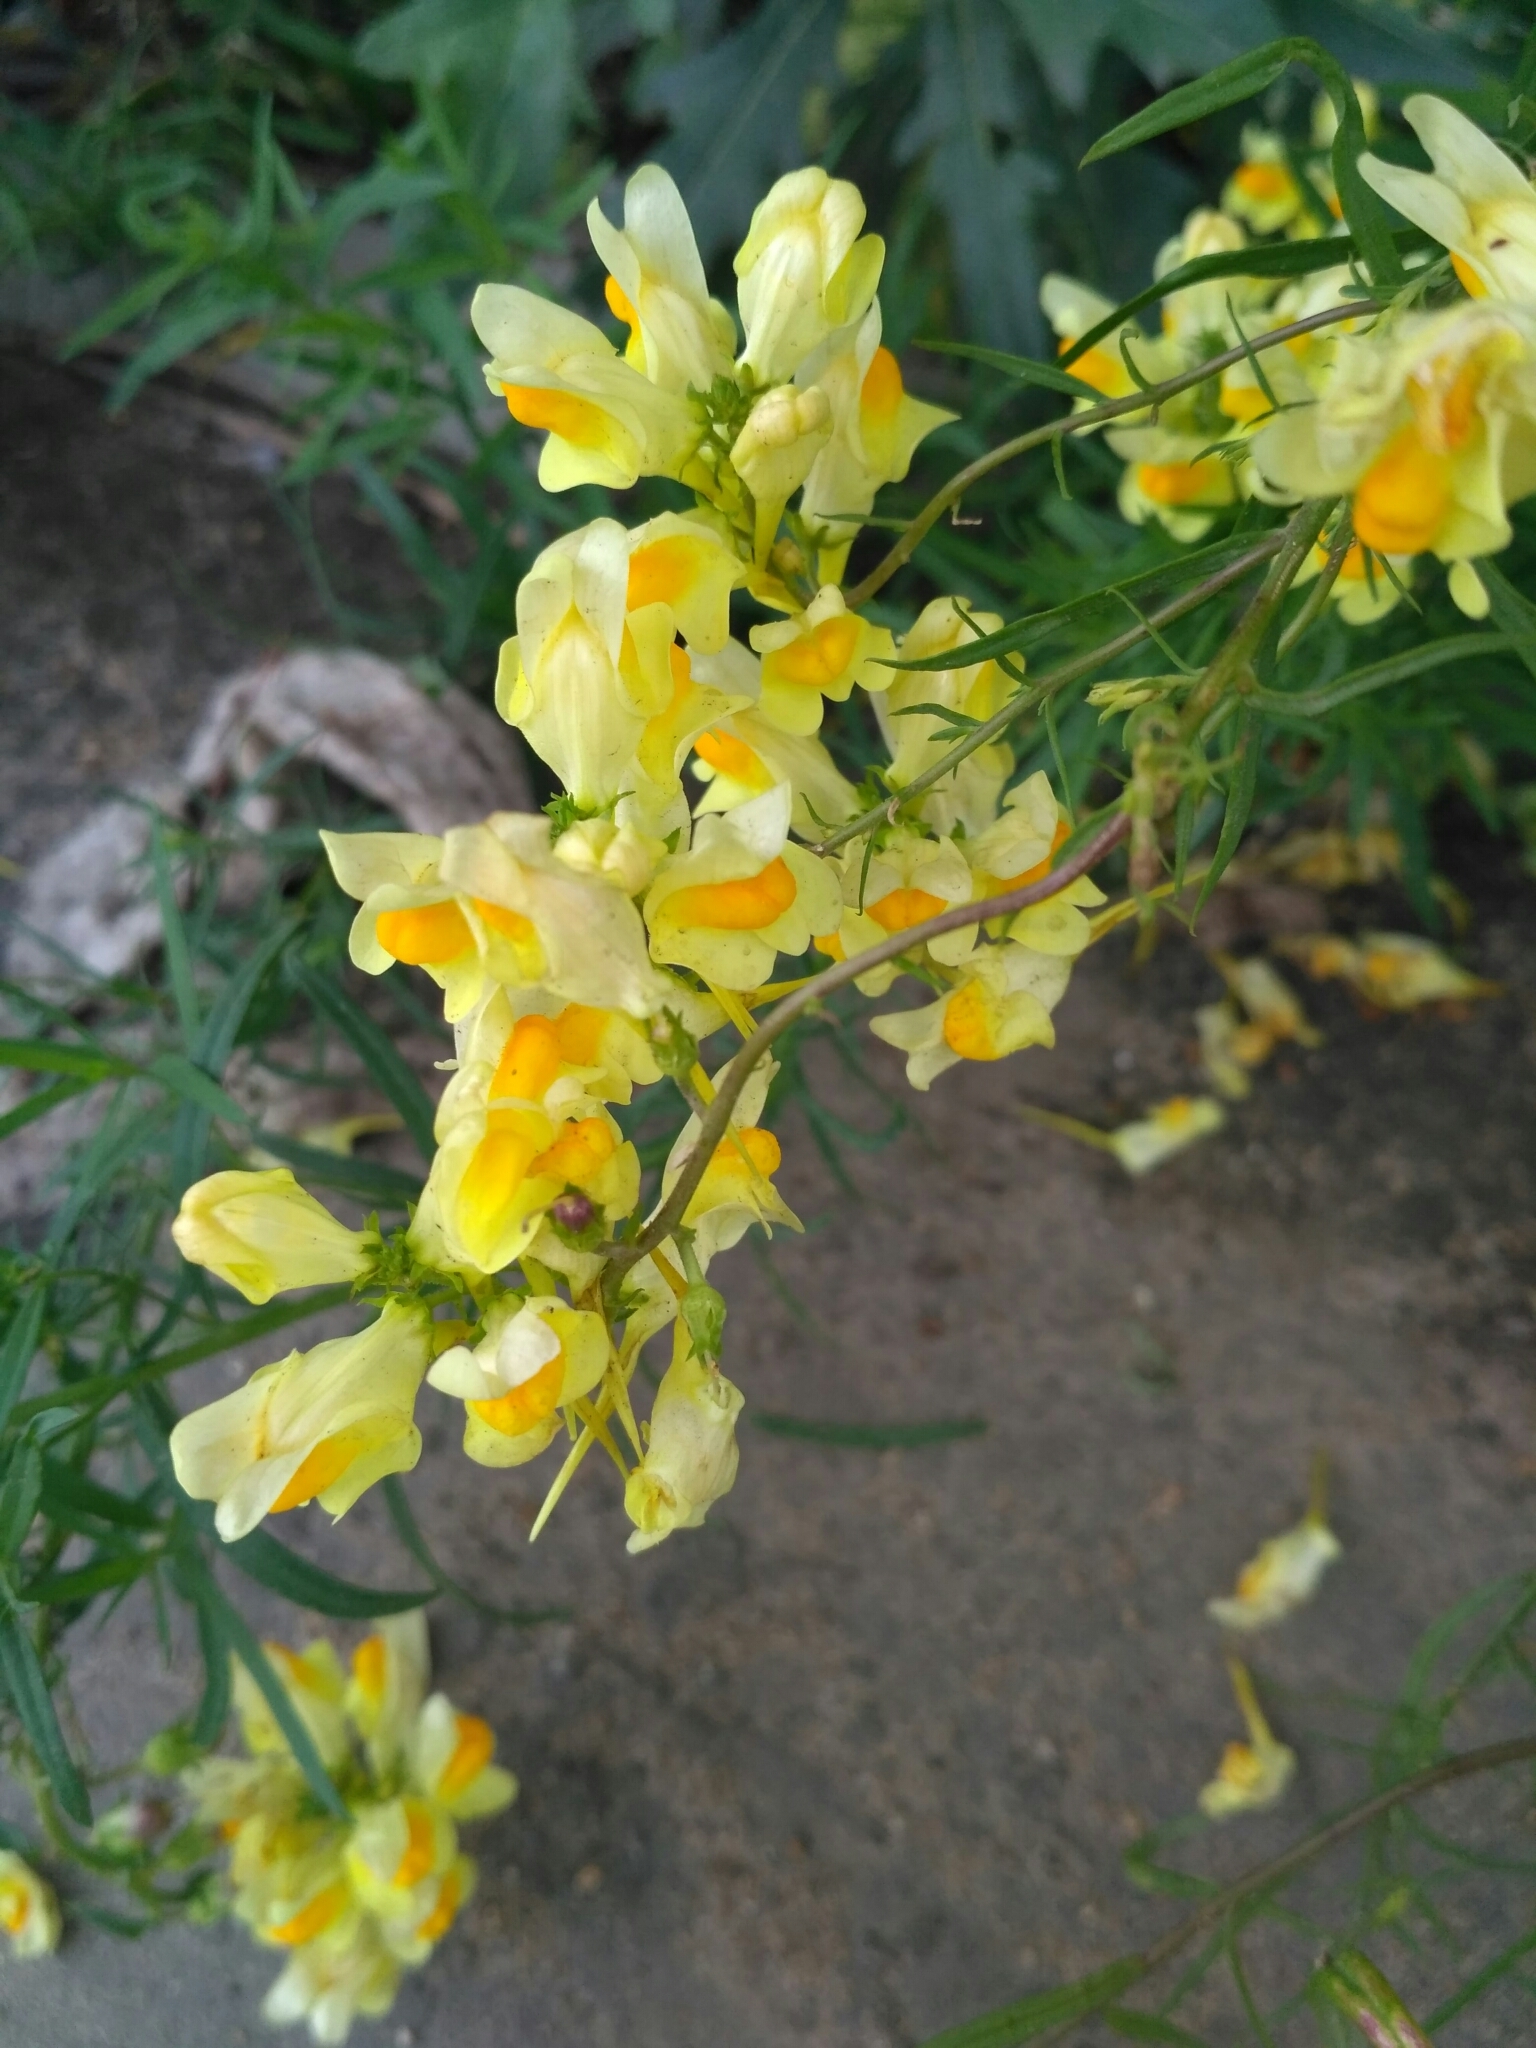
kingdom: Plantae
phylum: Tracheophyta
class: Magnoliopsida
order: Lamiales
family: Plantaginaceae
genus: Linaria
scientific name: Linaria vulgaris
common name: Butter and eggs
